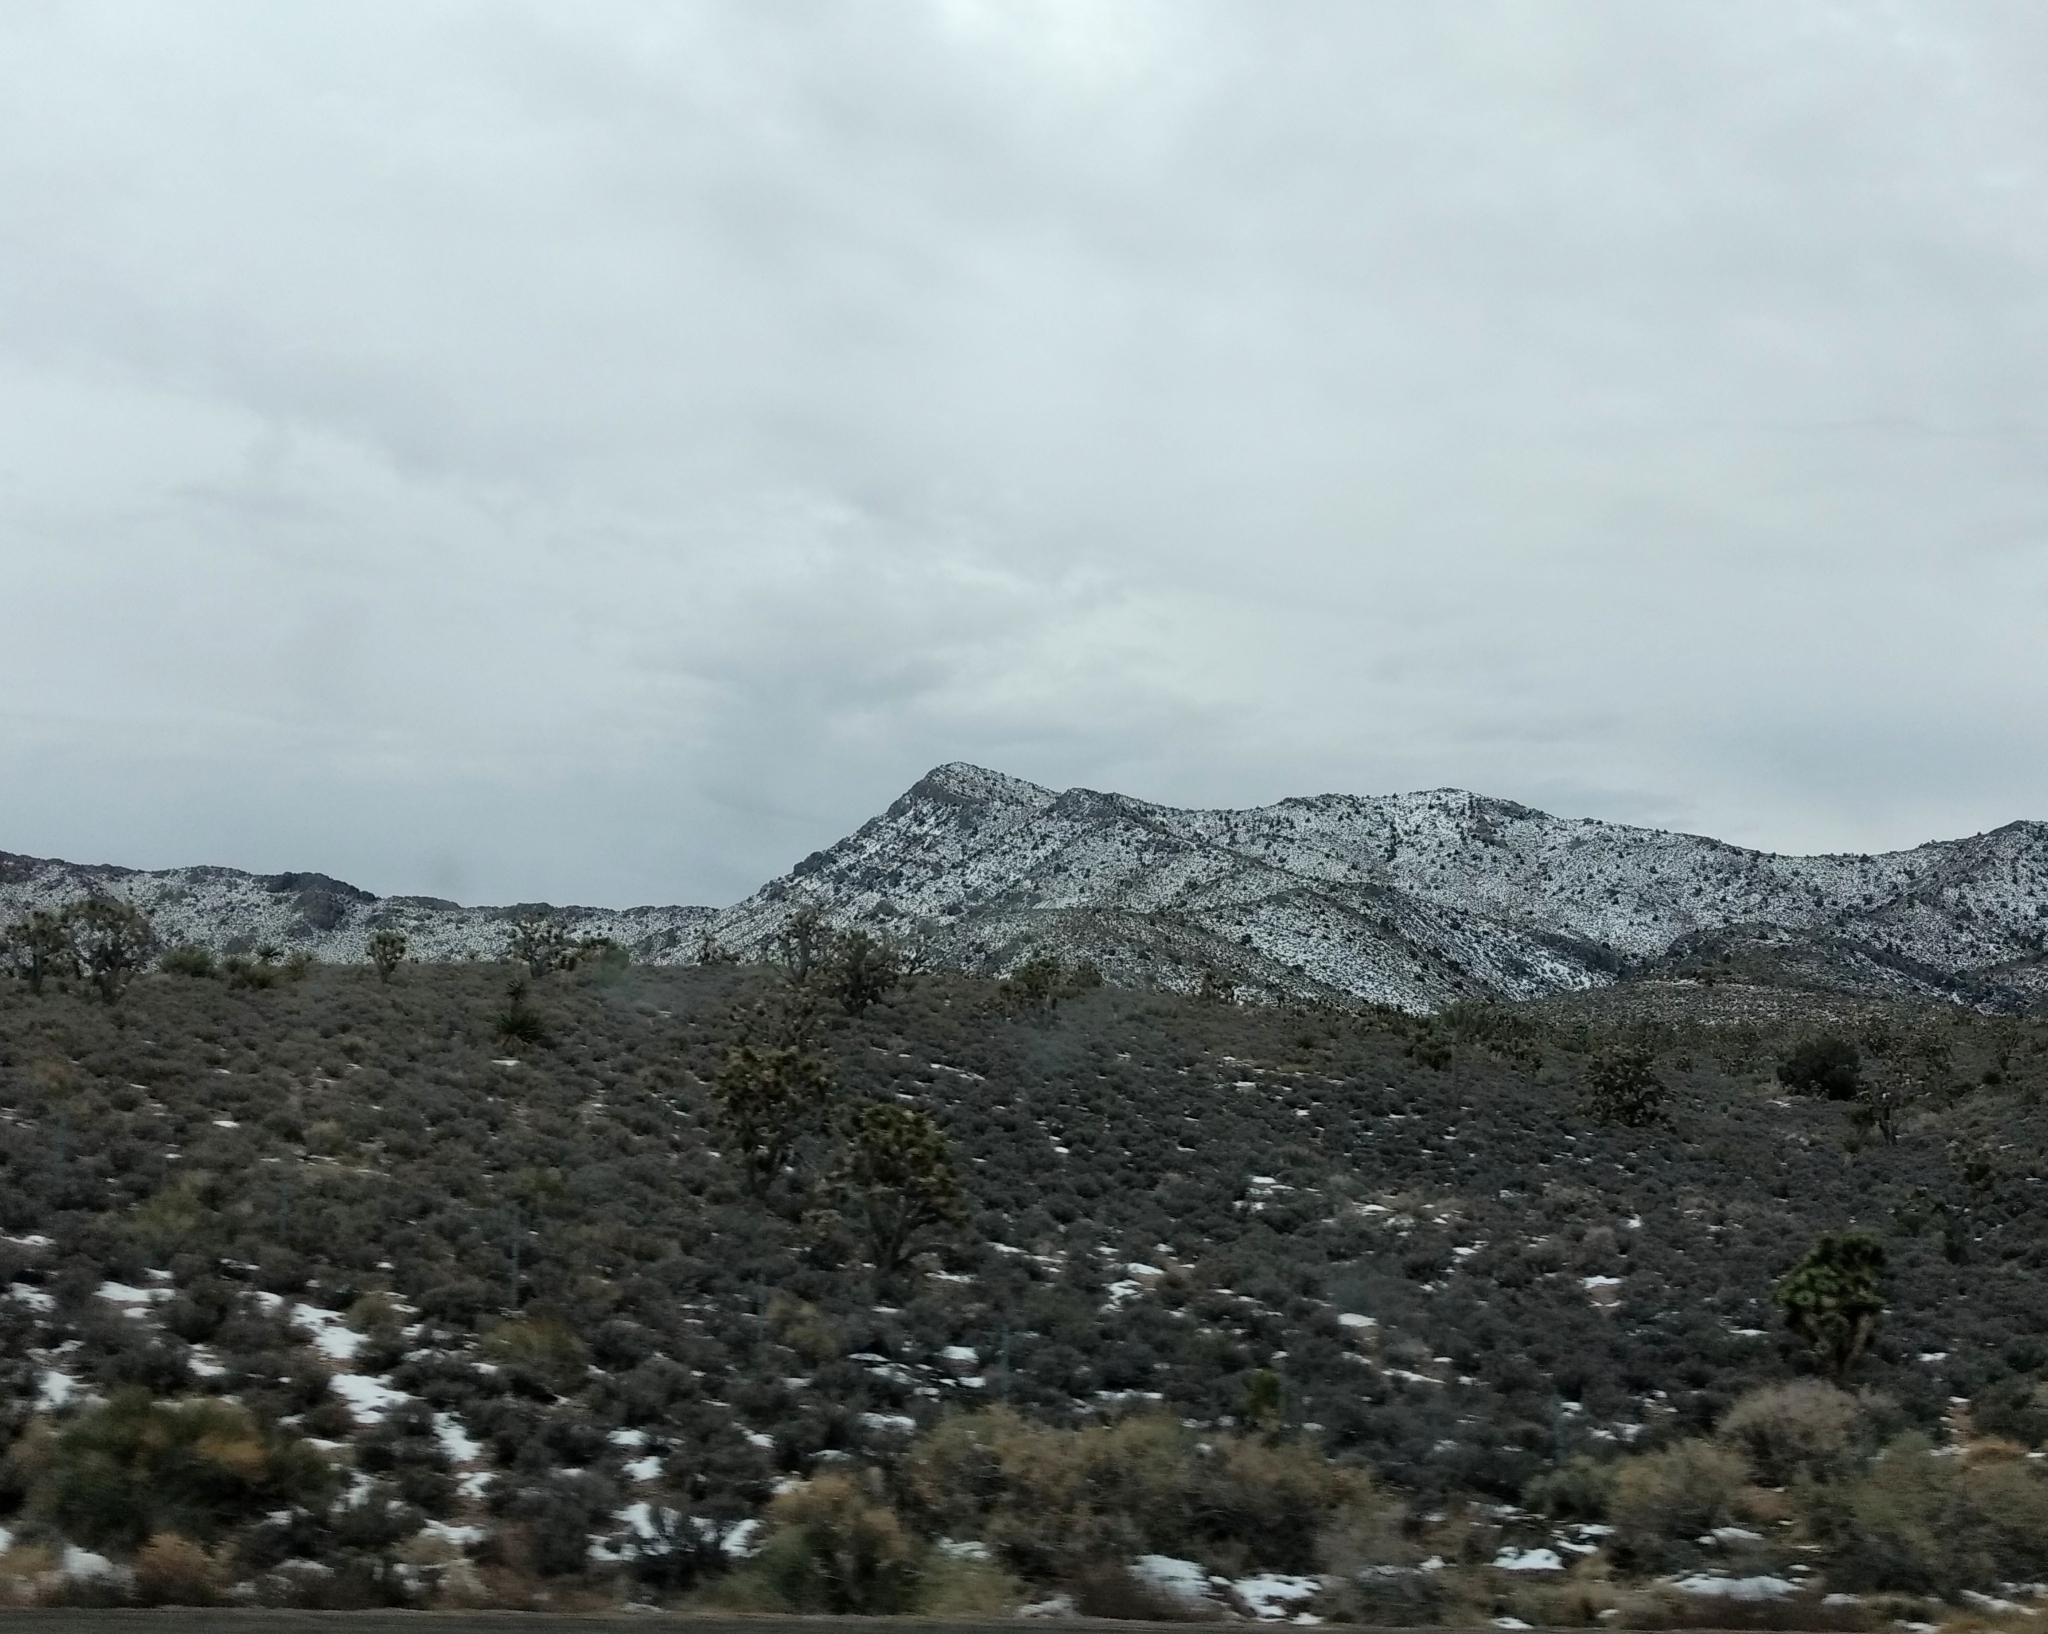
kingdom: Plantae
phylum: Tracheophyta
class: Liliopsida
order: Asparagales
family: Asparagaceae
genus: Yucca
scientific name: Yucca brevifolia
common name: Joshua tree
